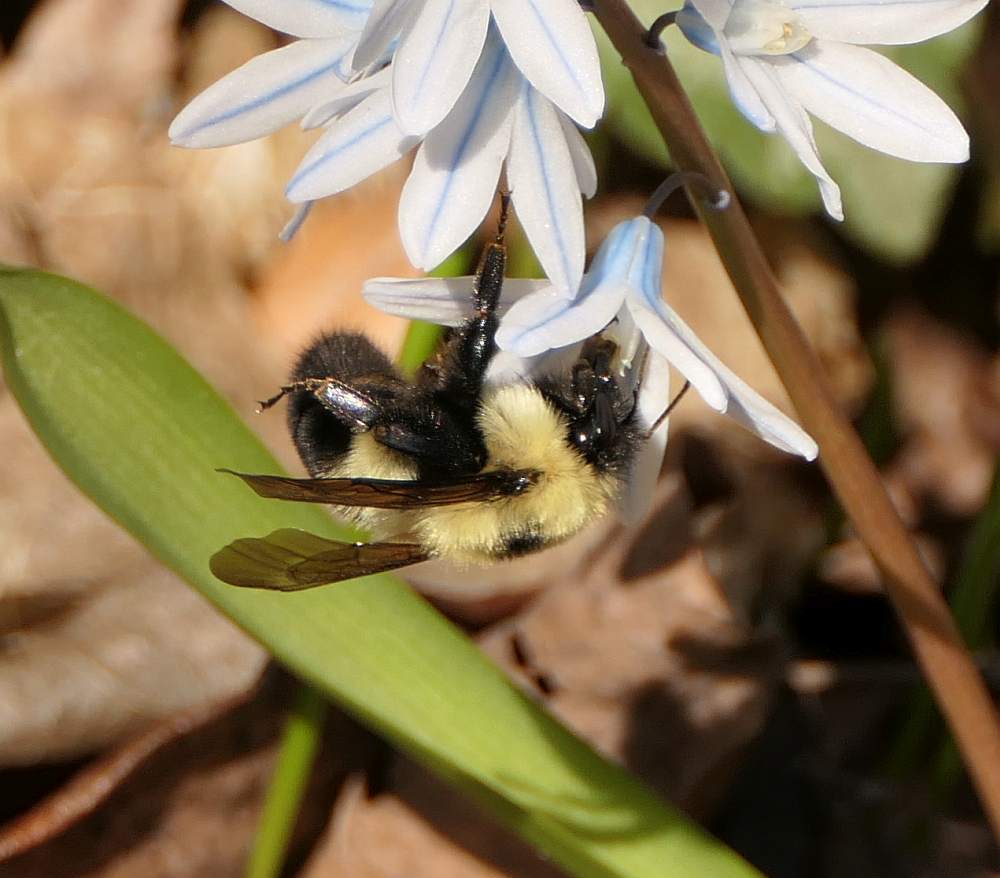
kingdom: Animalia
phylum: Arthropoda
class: Insecta
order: Hymenoptera
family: Apidae
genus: Bombus
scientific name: Bombus bimaculatus
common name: Two-spotted bumble bee
